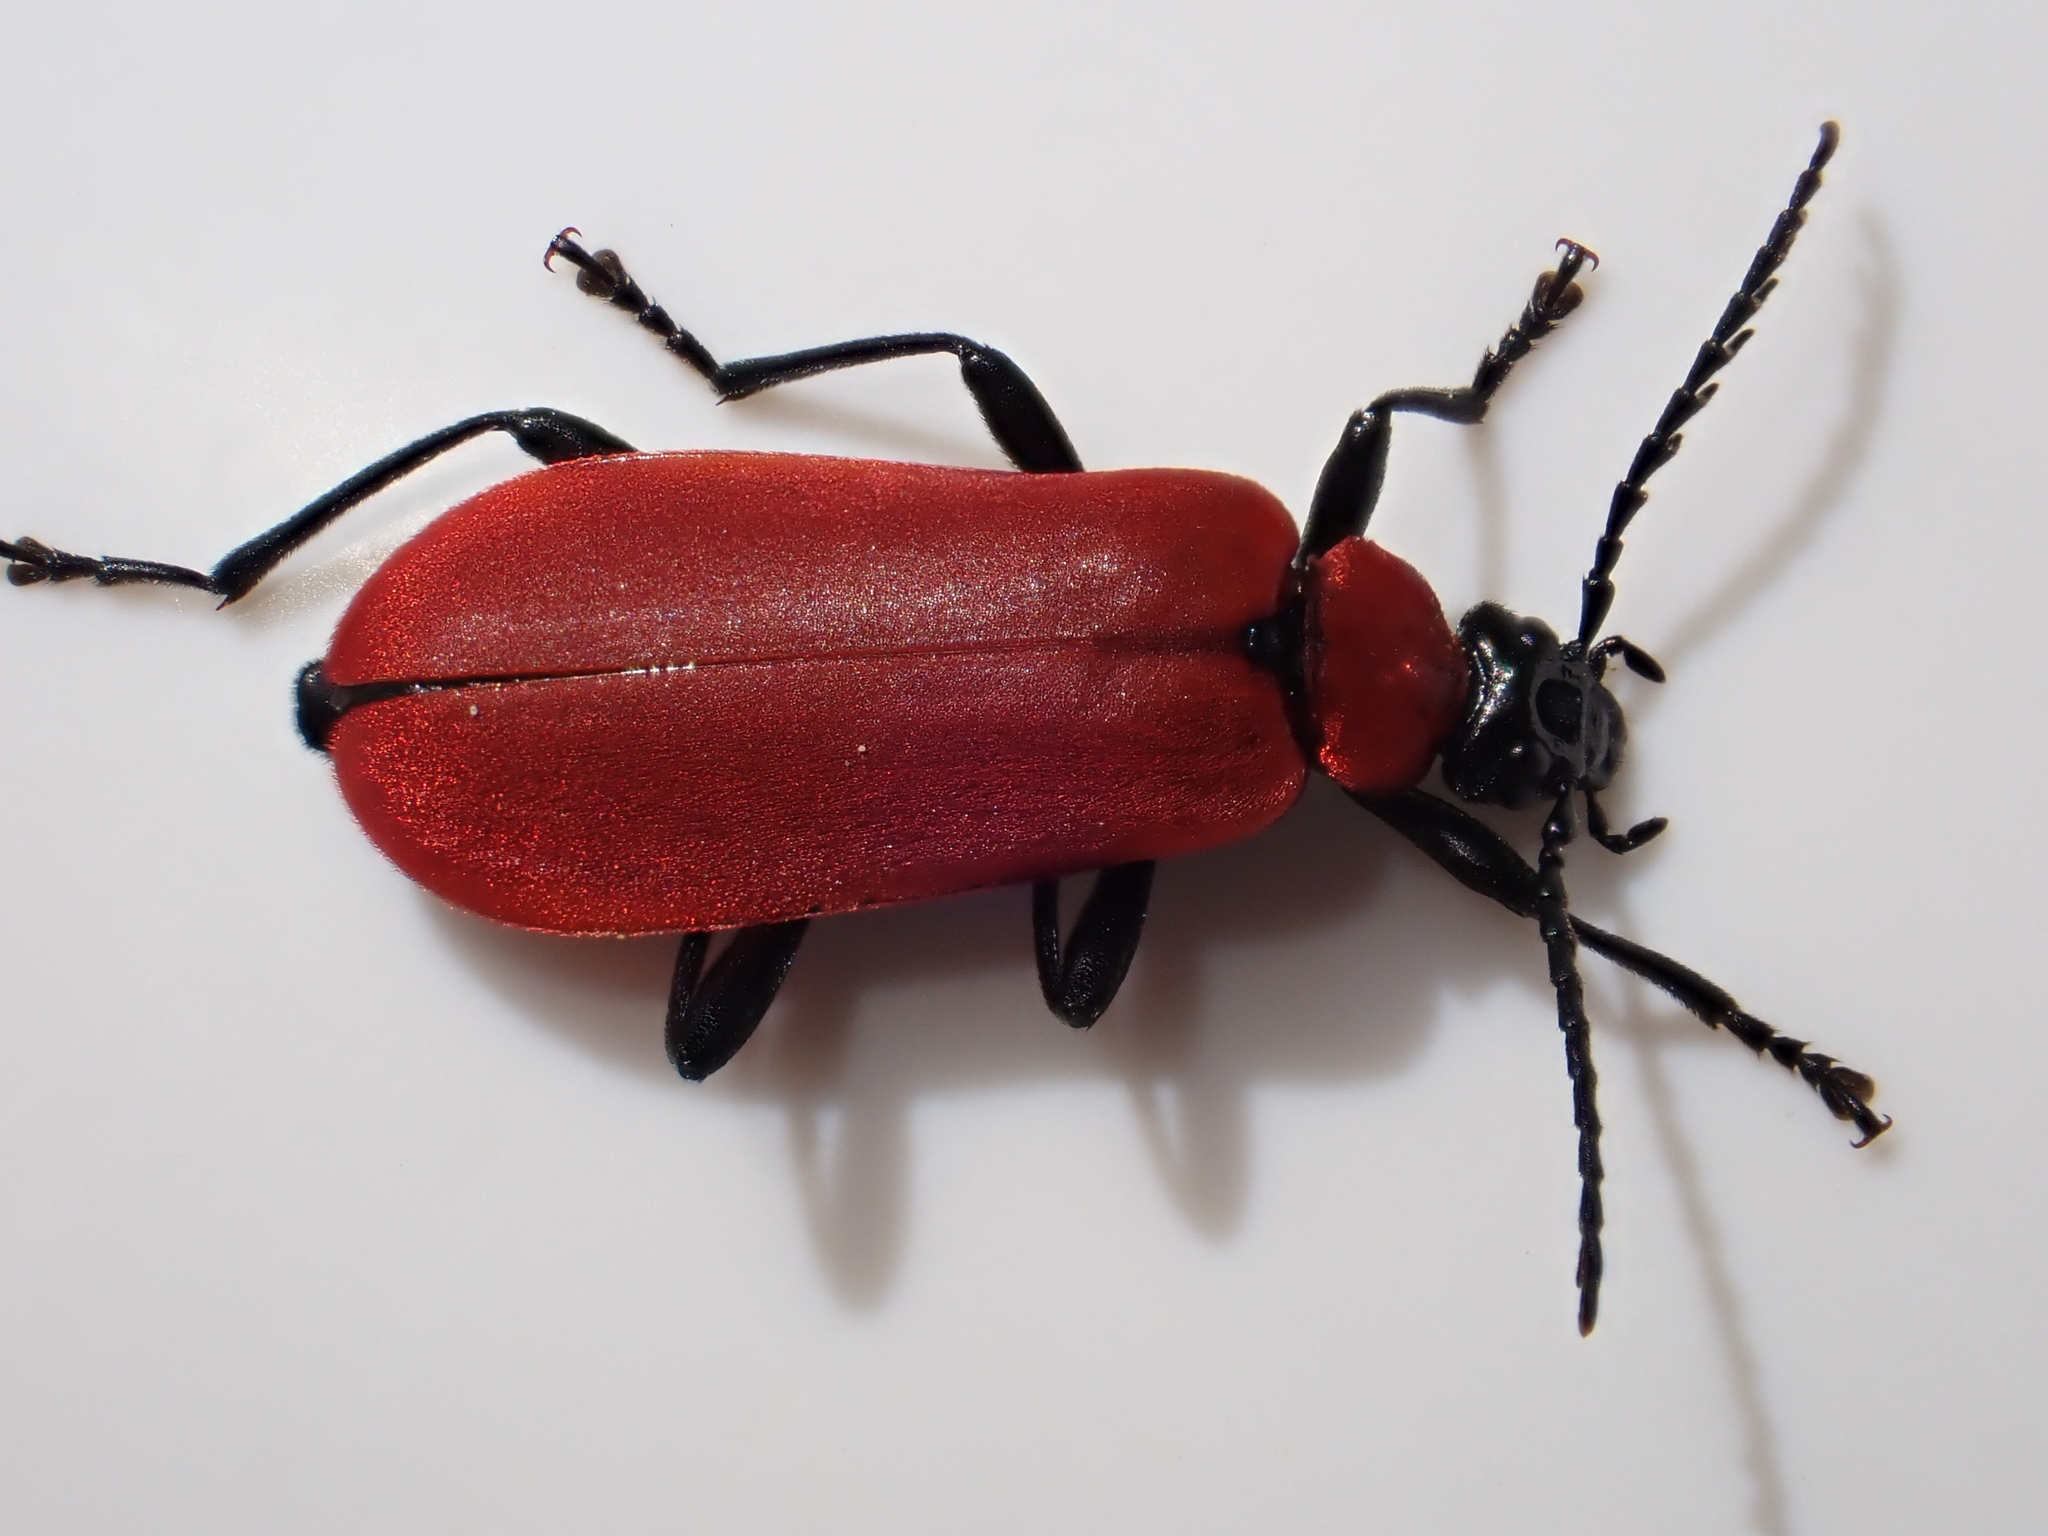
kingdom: Animalia
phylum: Arthropoda
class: Insecta
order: Coleoptera
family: Pyrochroidae
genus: Pyrochroa
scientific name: Pyrochroa coccinea
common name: Black-headed cardinal beetle
